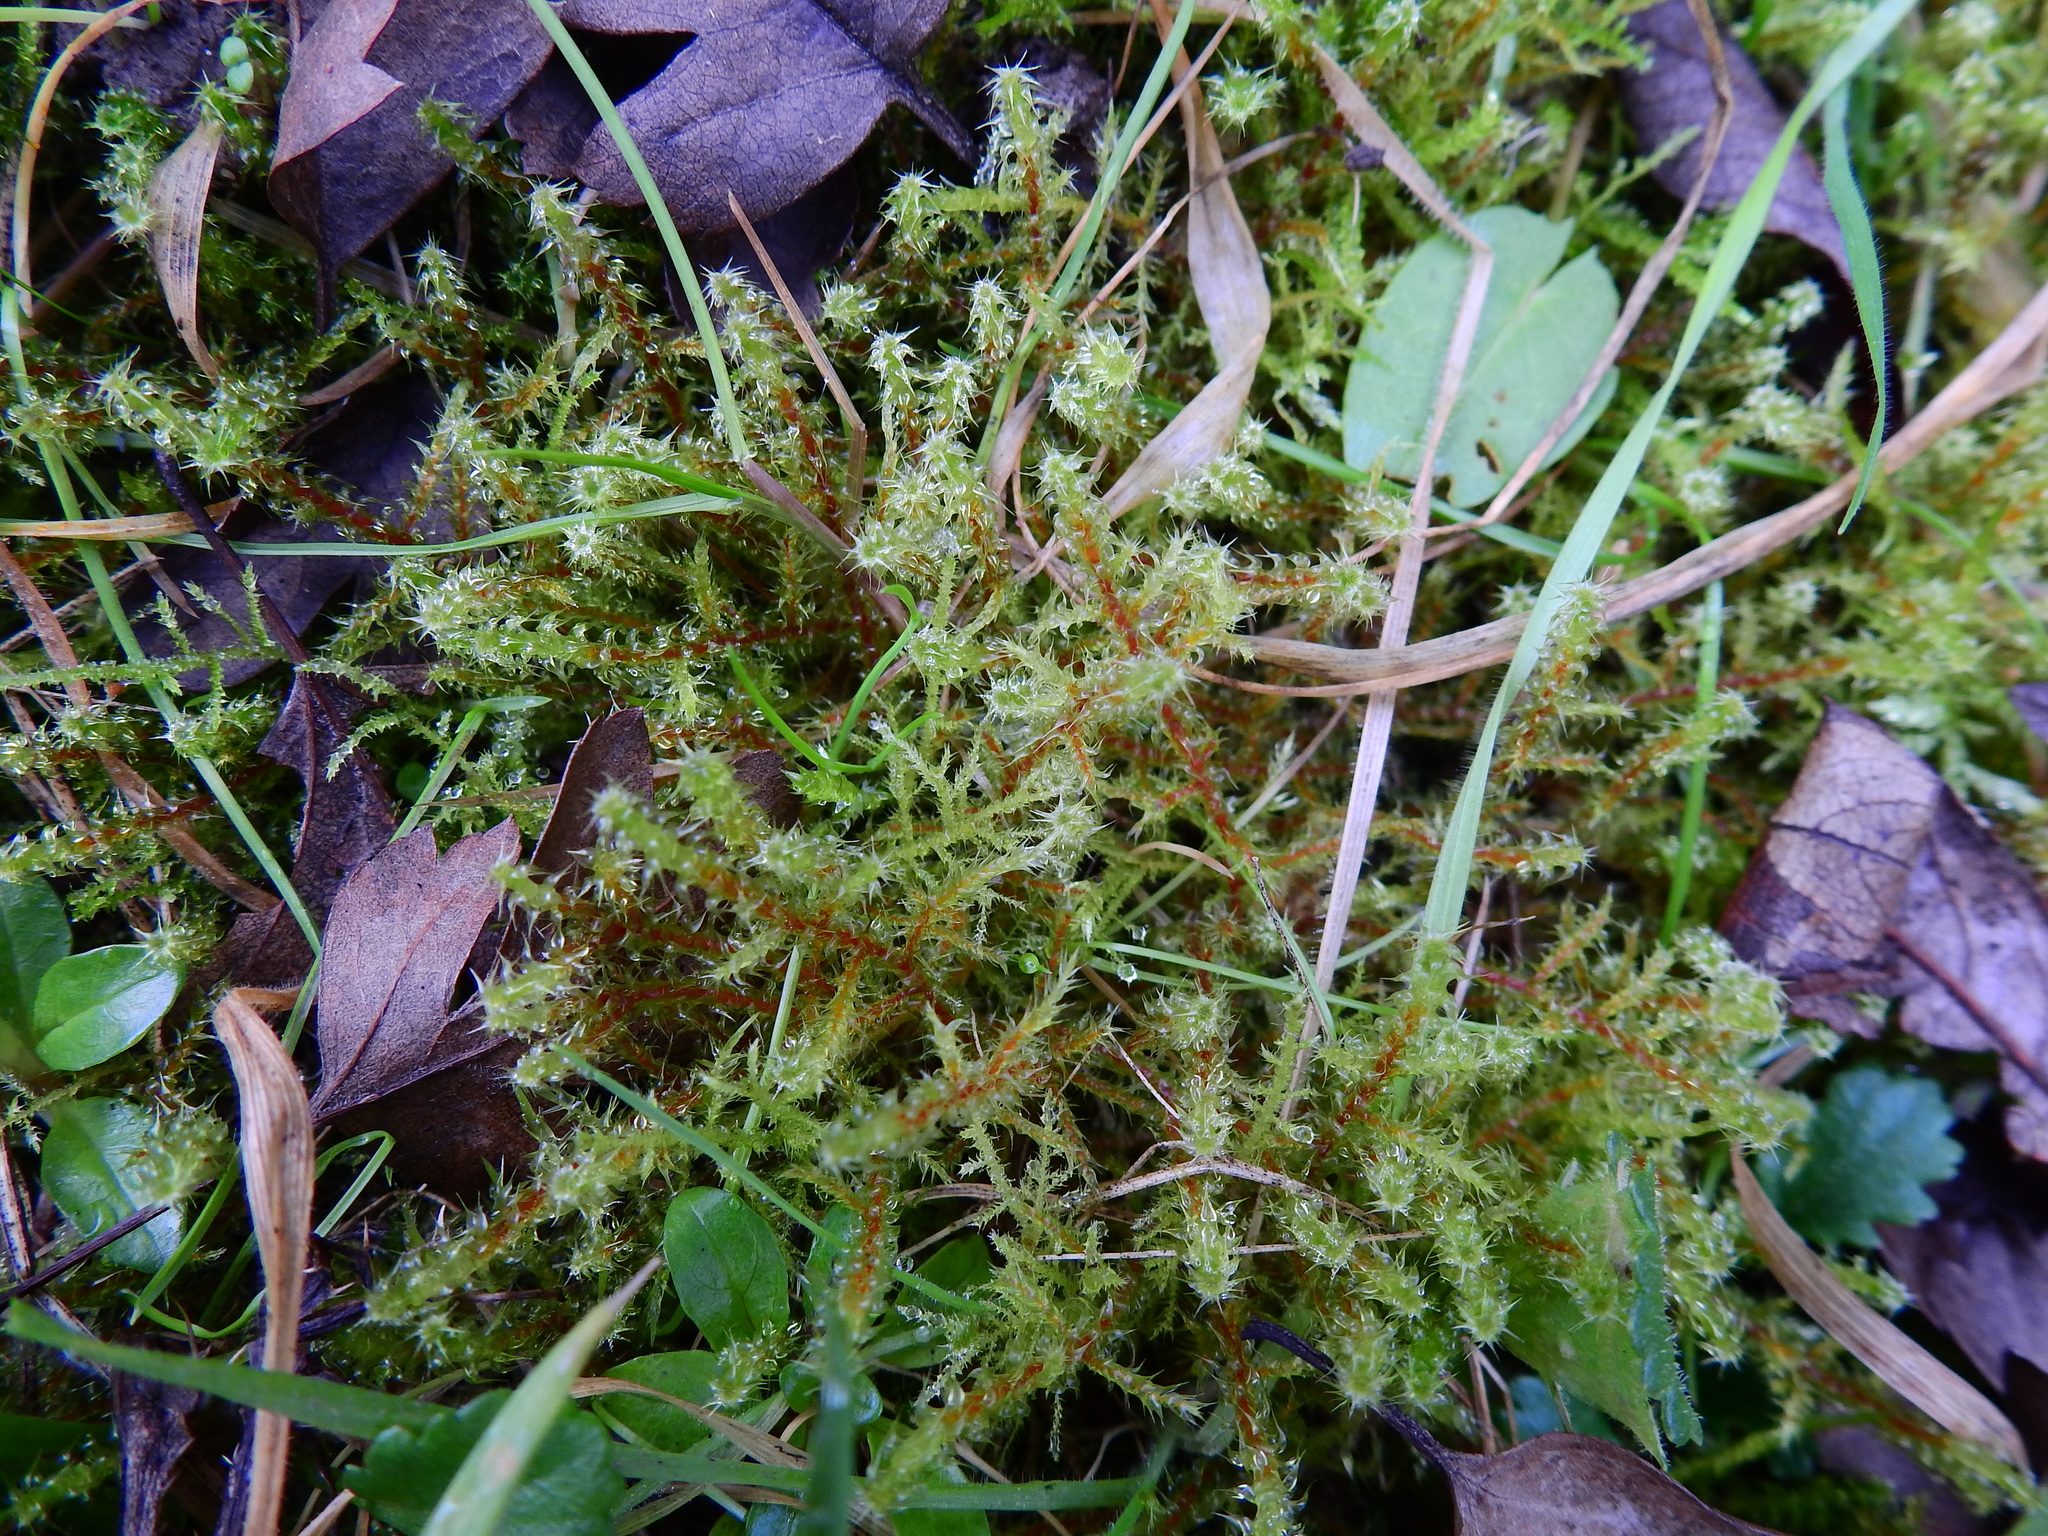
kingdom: Plantae
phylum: Bryophyta
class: Bryopsida
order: Hypnales
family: Hylocomiaceae
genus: Rhytidiadelphus
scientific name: Rhytidiadelphus squarrosus
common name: Springy turf-moss
